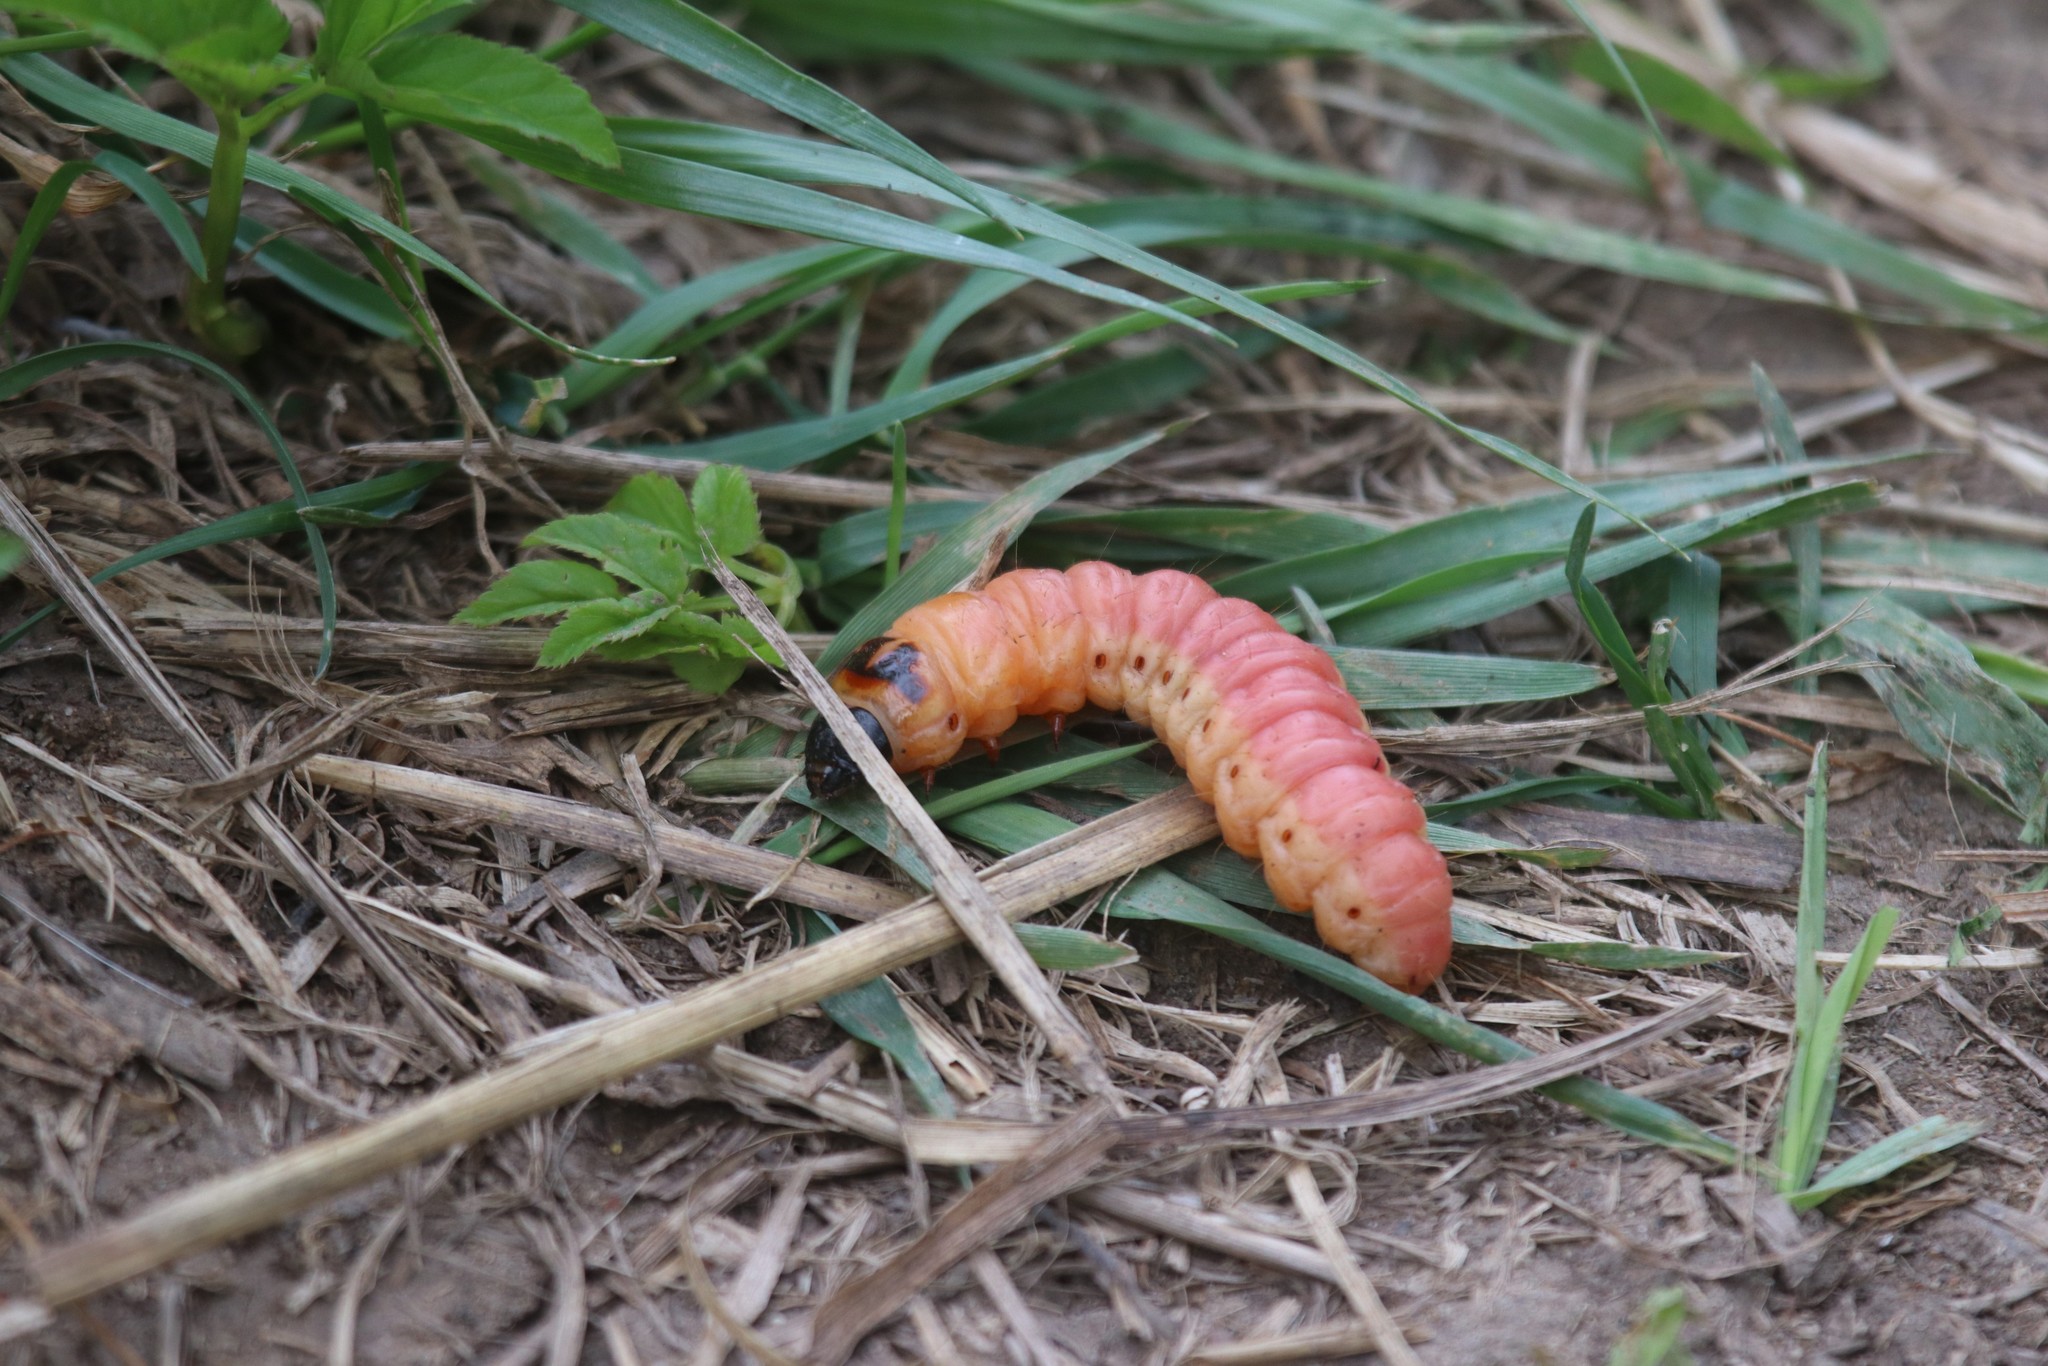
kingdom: Animalia
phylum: Arthropoda
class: Insecta
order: Lepidoptera
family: Cossidae
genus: Cossus
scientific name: Cossus cossus
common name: Goat moth
